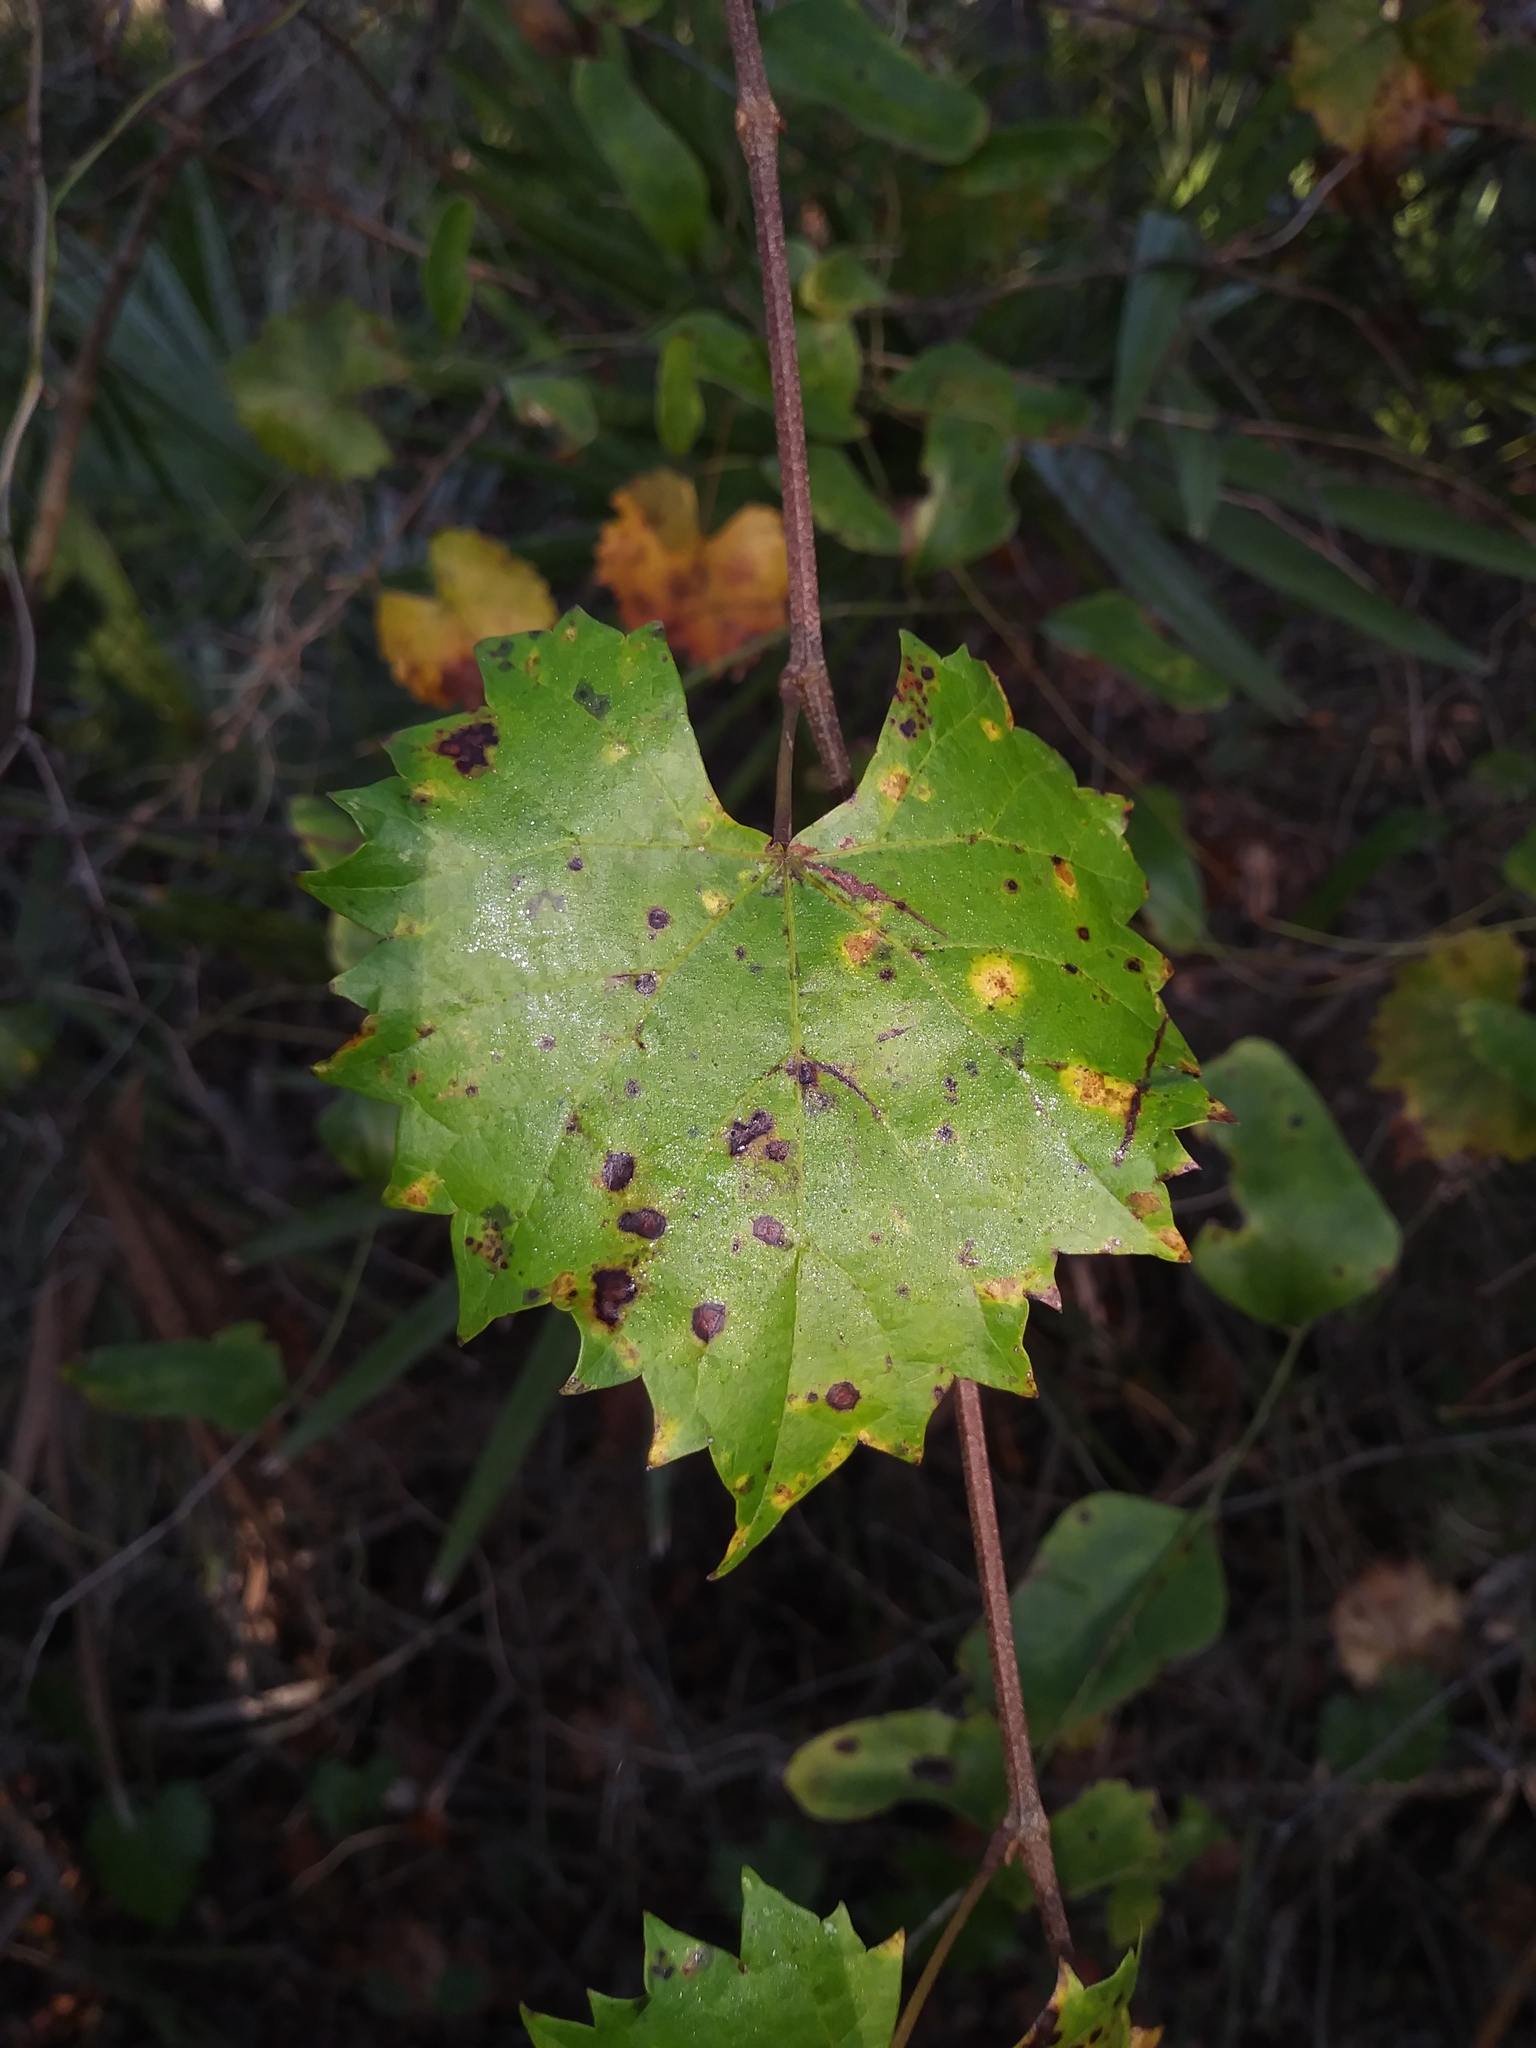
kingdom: Plantae
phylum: Tracheophyta
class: Magnoliopsida
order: Vitales
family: Vitaceae
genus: Vitis
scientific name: Vitis rotundifolia
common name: Muscadine grape
